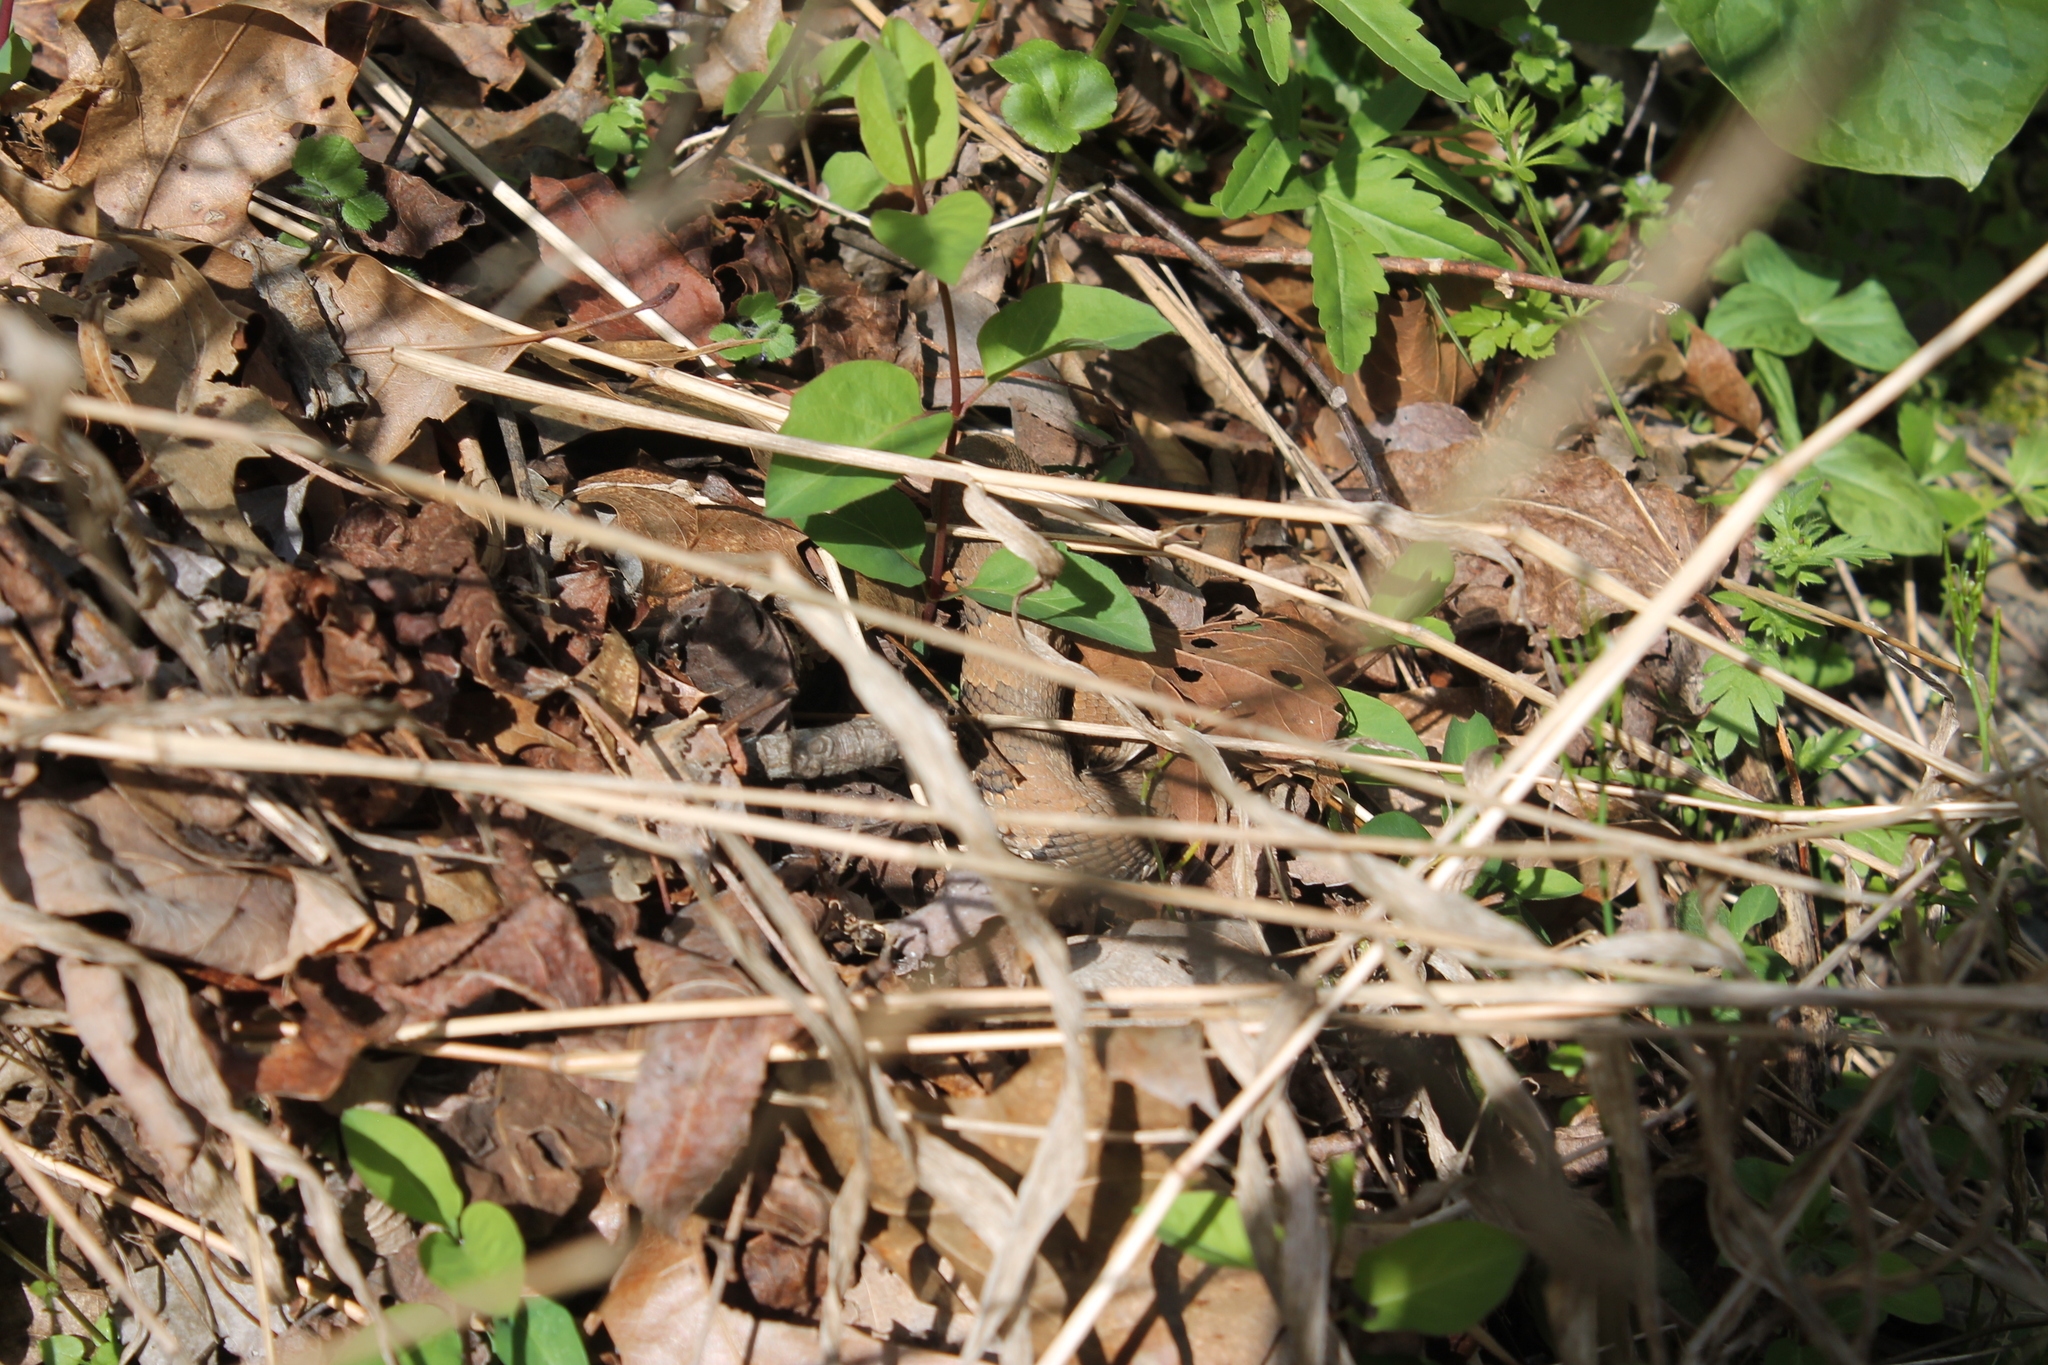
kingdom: Animalia
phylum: Chordata
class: Squamata
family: Viperidae
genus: Agkistrodon
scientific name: Agkistrodon piscivorus
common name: Cottonmouth
